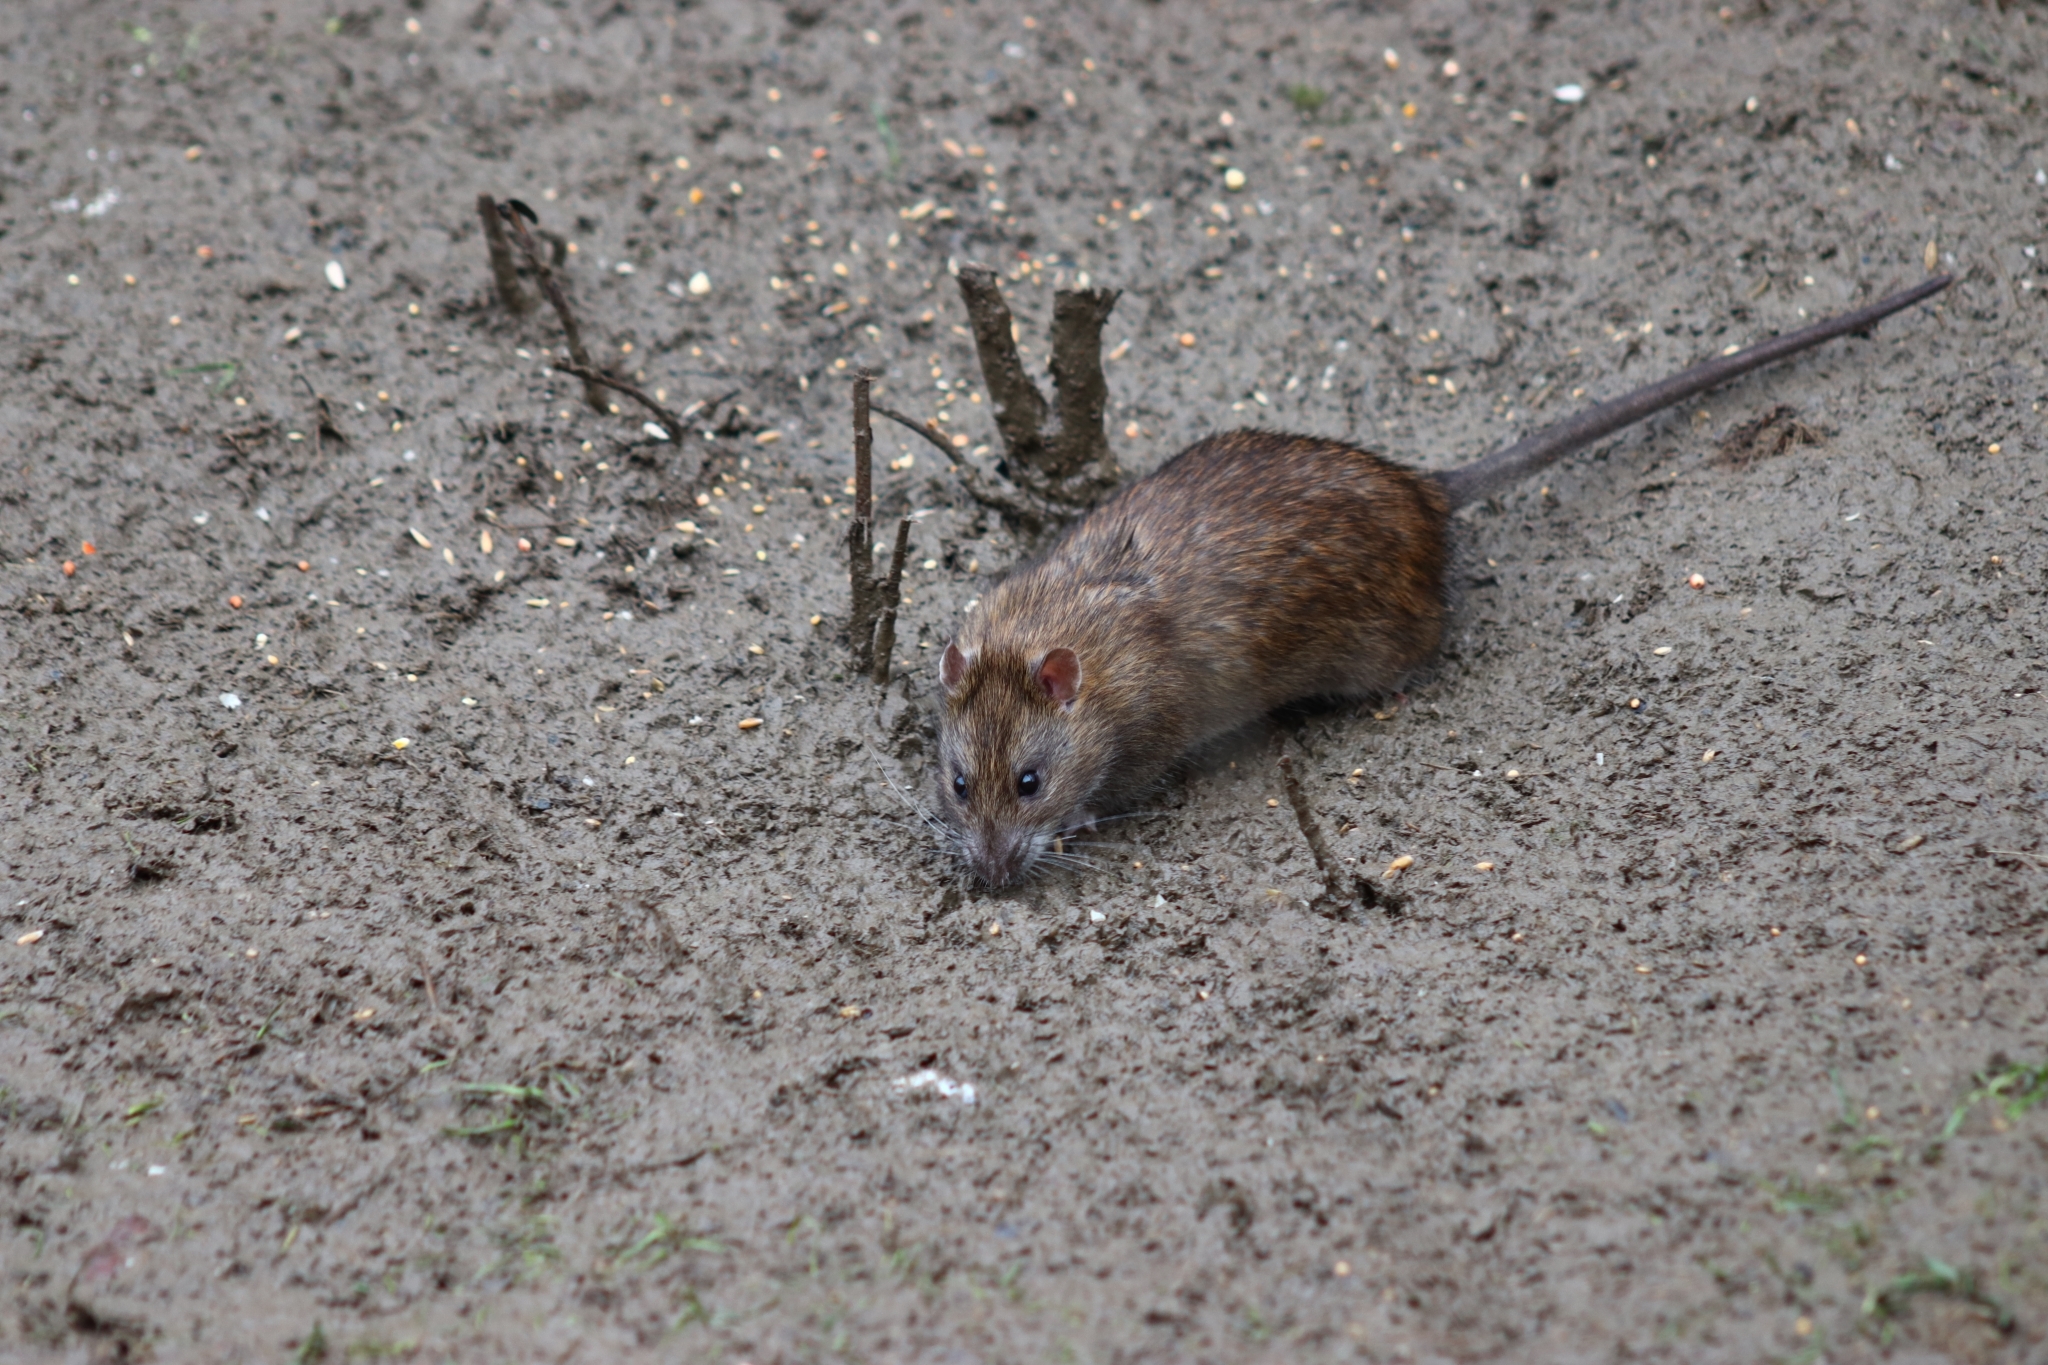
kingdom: Animalia
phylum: Chordata
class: Mammalia
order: Rodentia
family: Muridae
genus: Rattus
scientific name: Rattus norvegicus
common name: Brown rat
